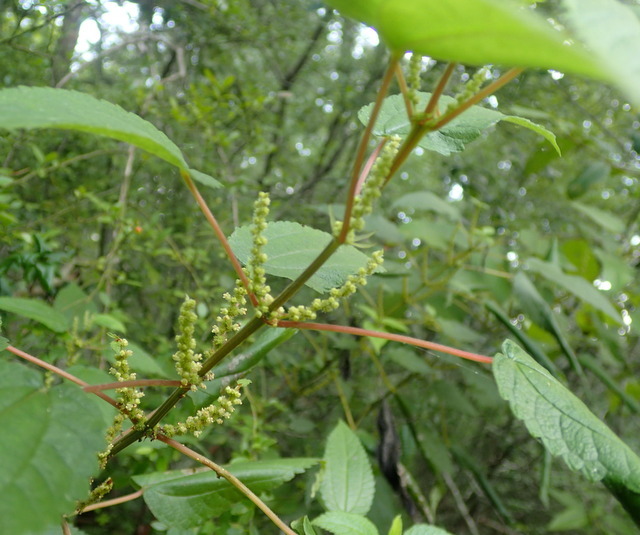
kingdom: Plantae
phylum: Tracheophyta
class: Magnoliopsida
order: Rosales
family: Urticaceae
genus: Boehmeria
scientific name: Boehmeria cylindrica
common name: Bog-hemp
